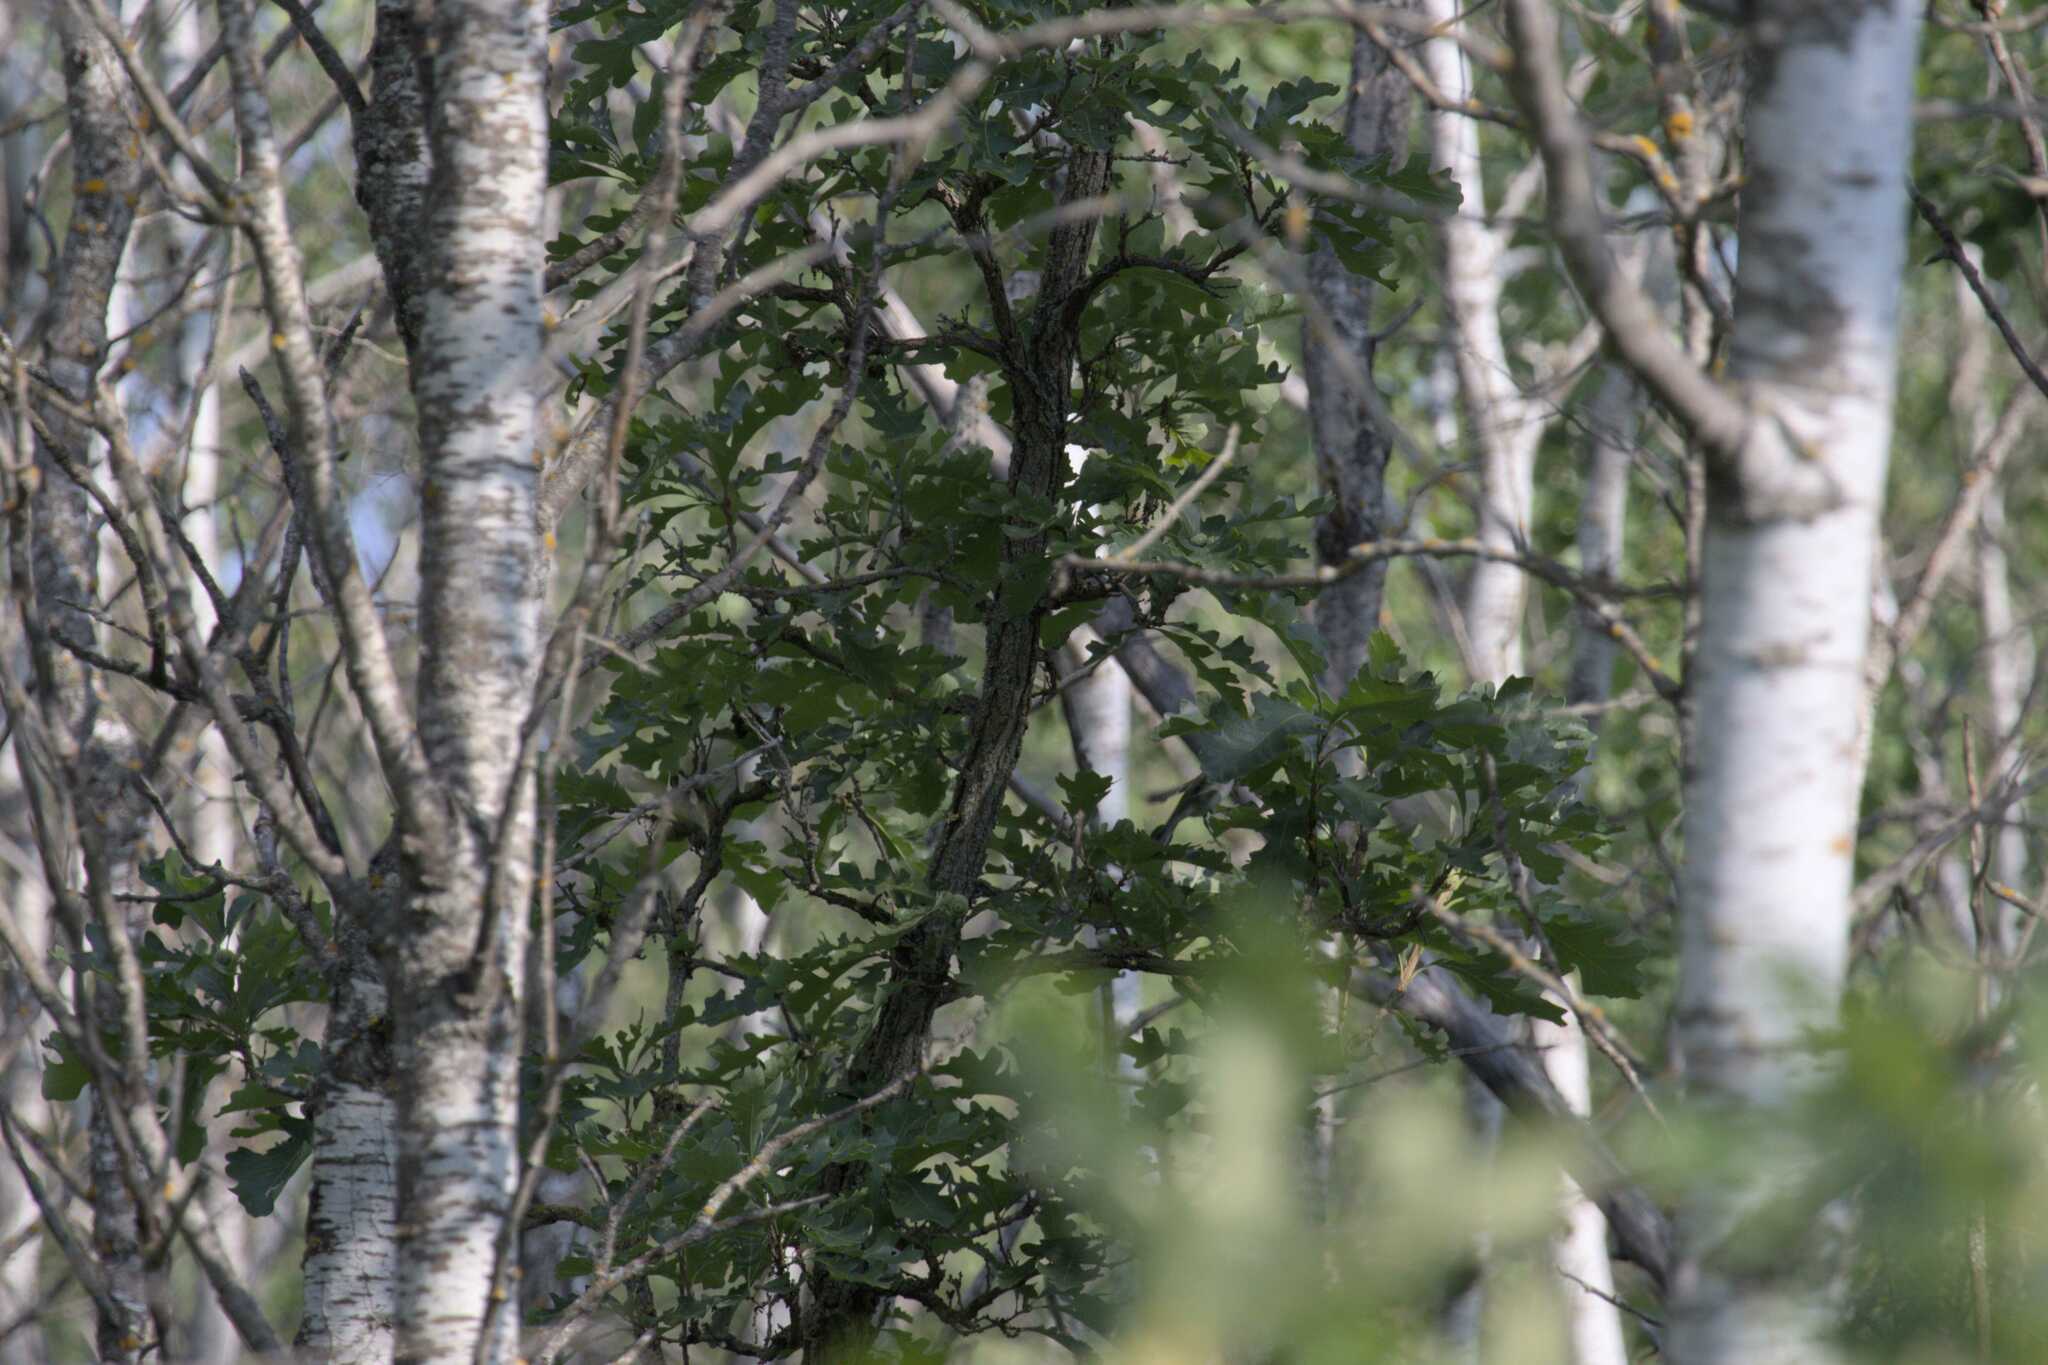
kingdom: Plantae
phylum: Tracheophyta
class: Magnoliopsida
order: Fagales
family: Fagaceae
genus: Quercus
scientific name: Quercus macrocarpa
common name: Bur oak
